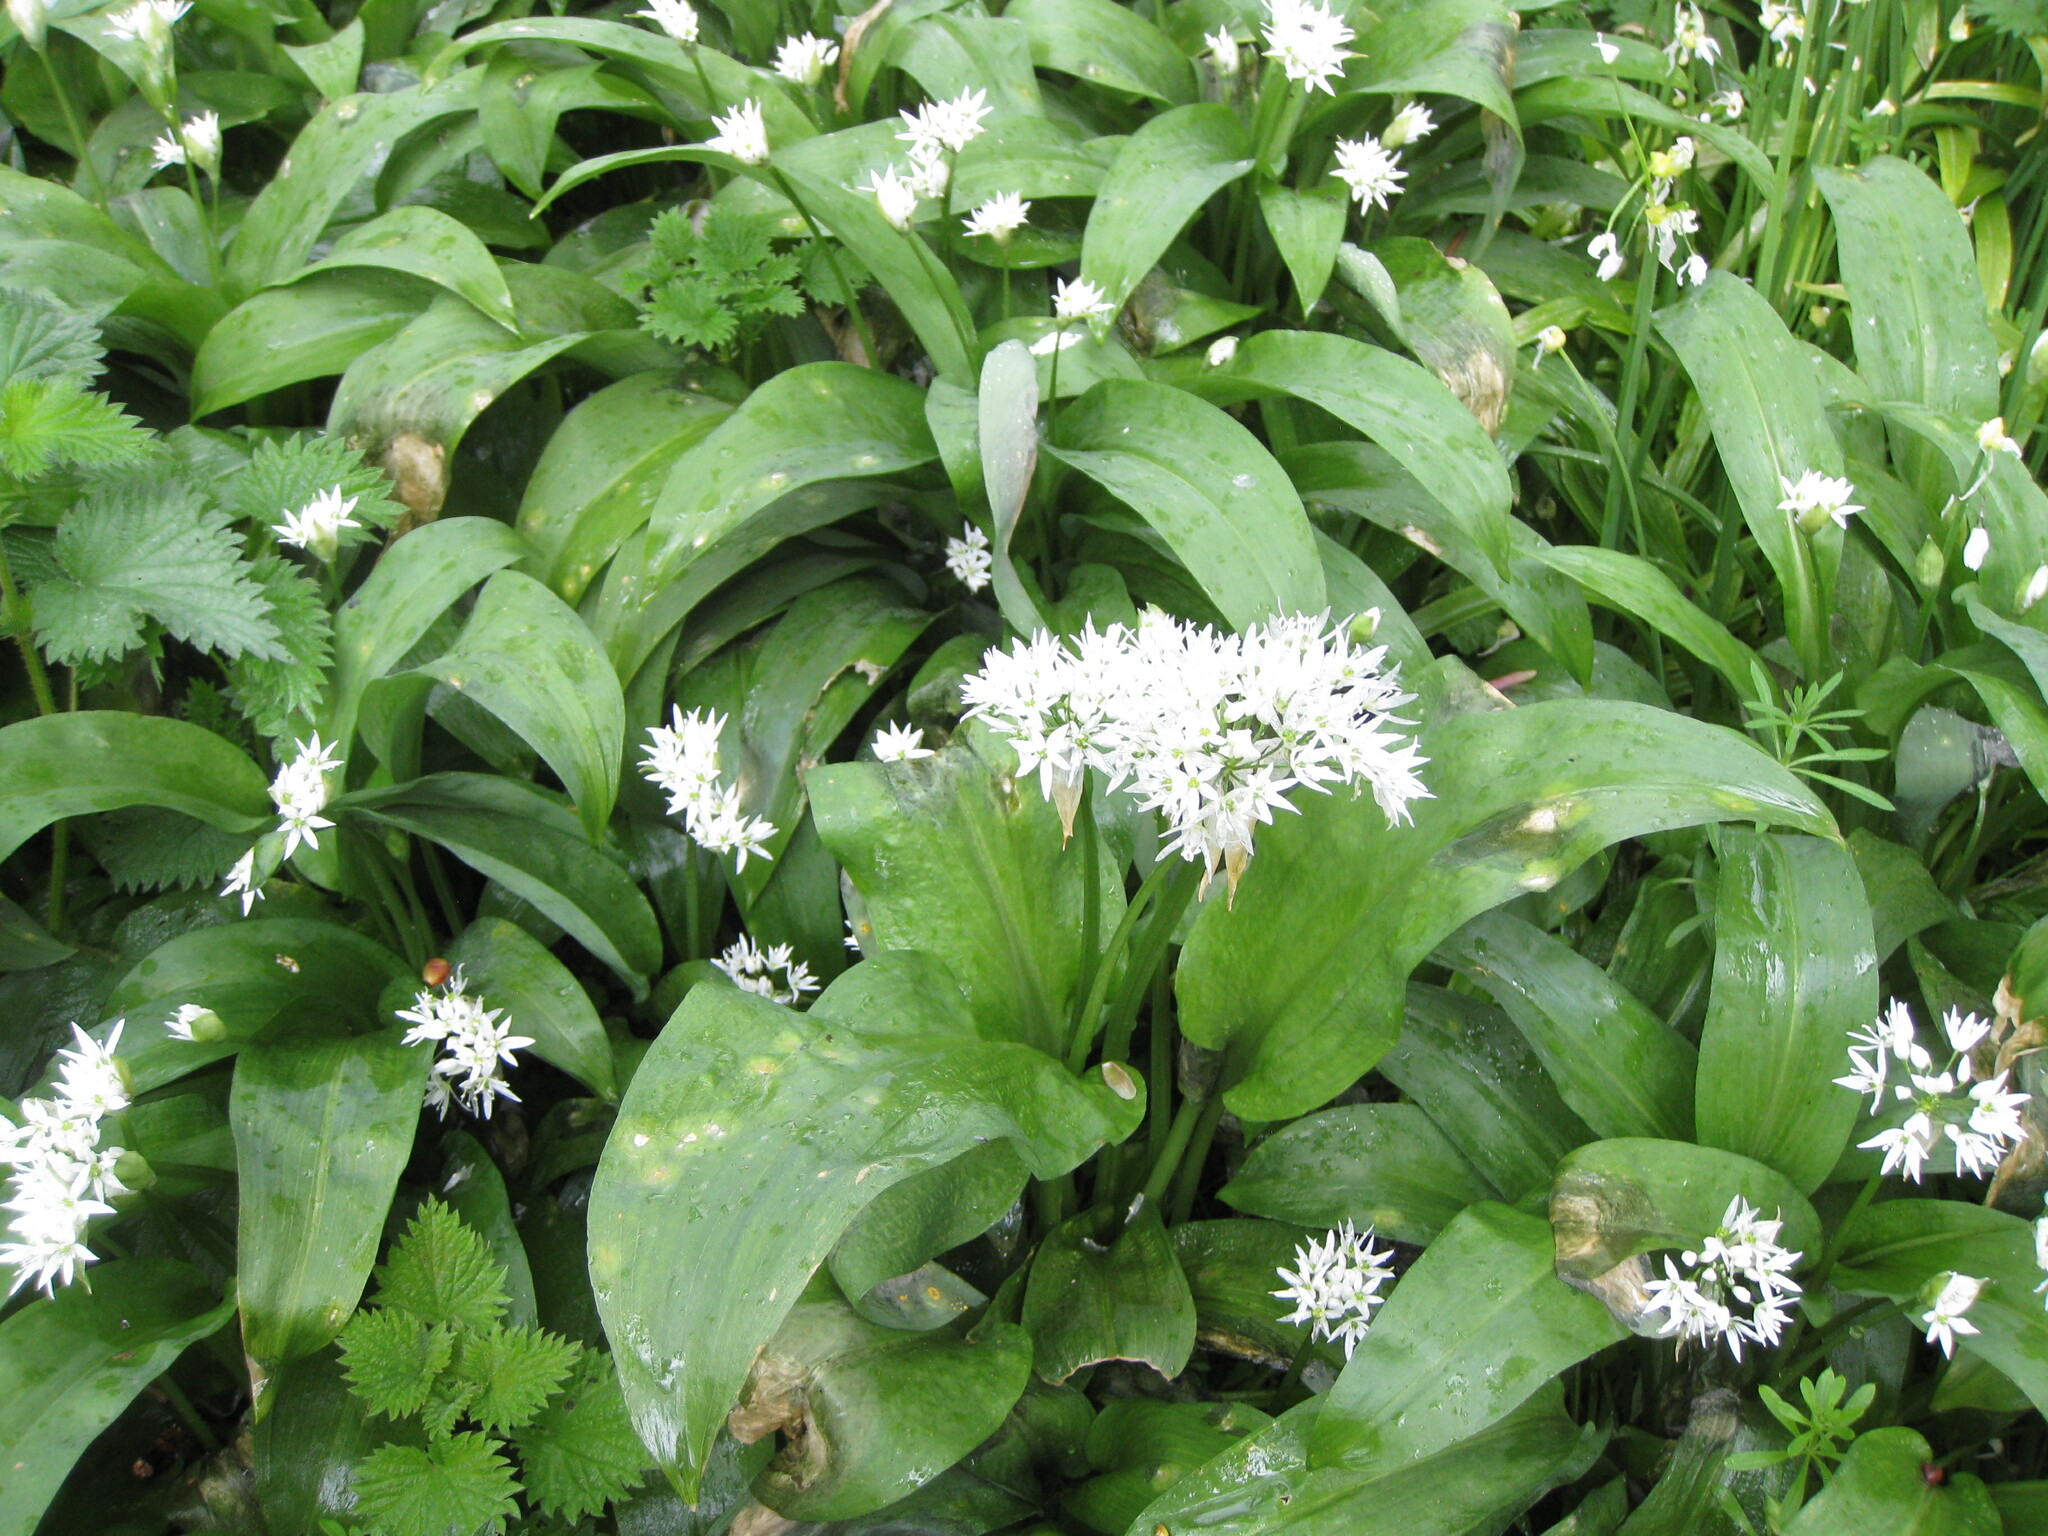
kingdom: Plantae
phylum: Tracheophyta
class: Liliopsida
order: Asparagales
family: Amaryllidaceae
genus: Allium
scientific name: Allium ursinum
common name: Ramsons
